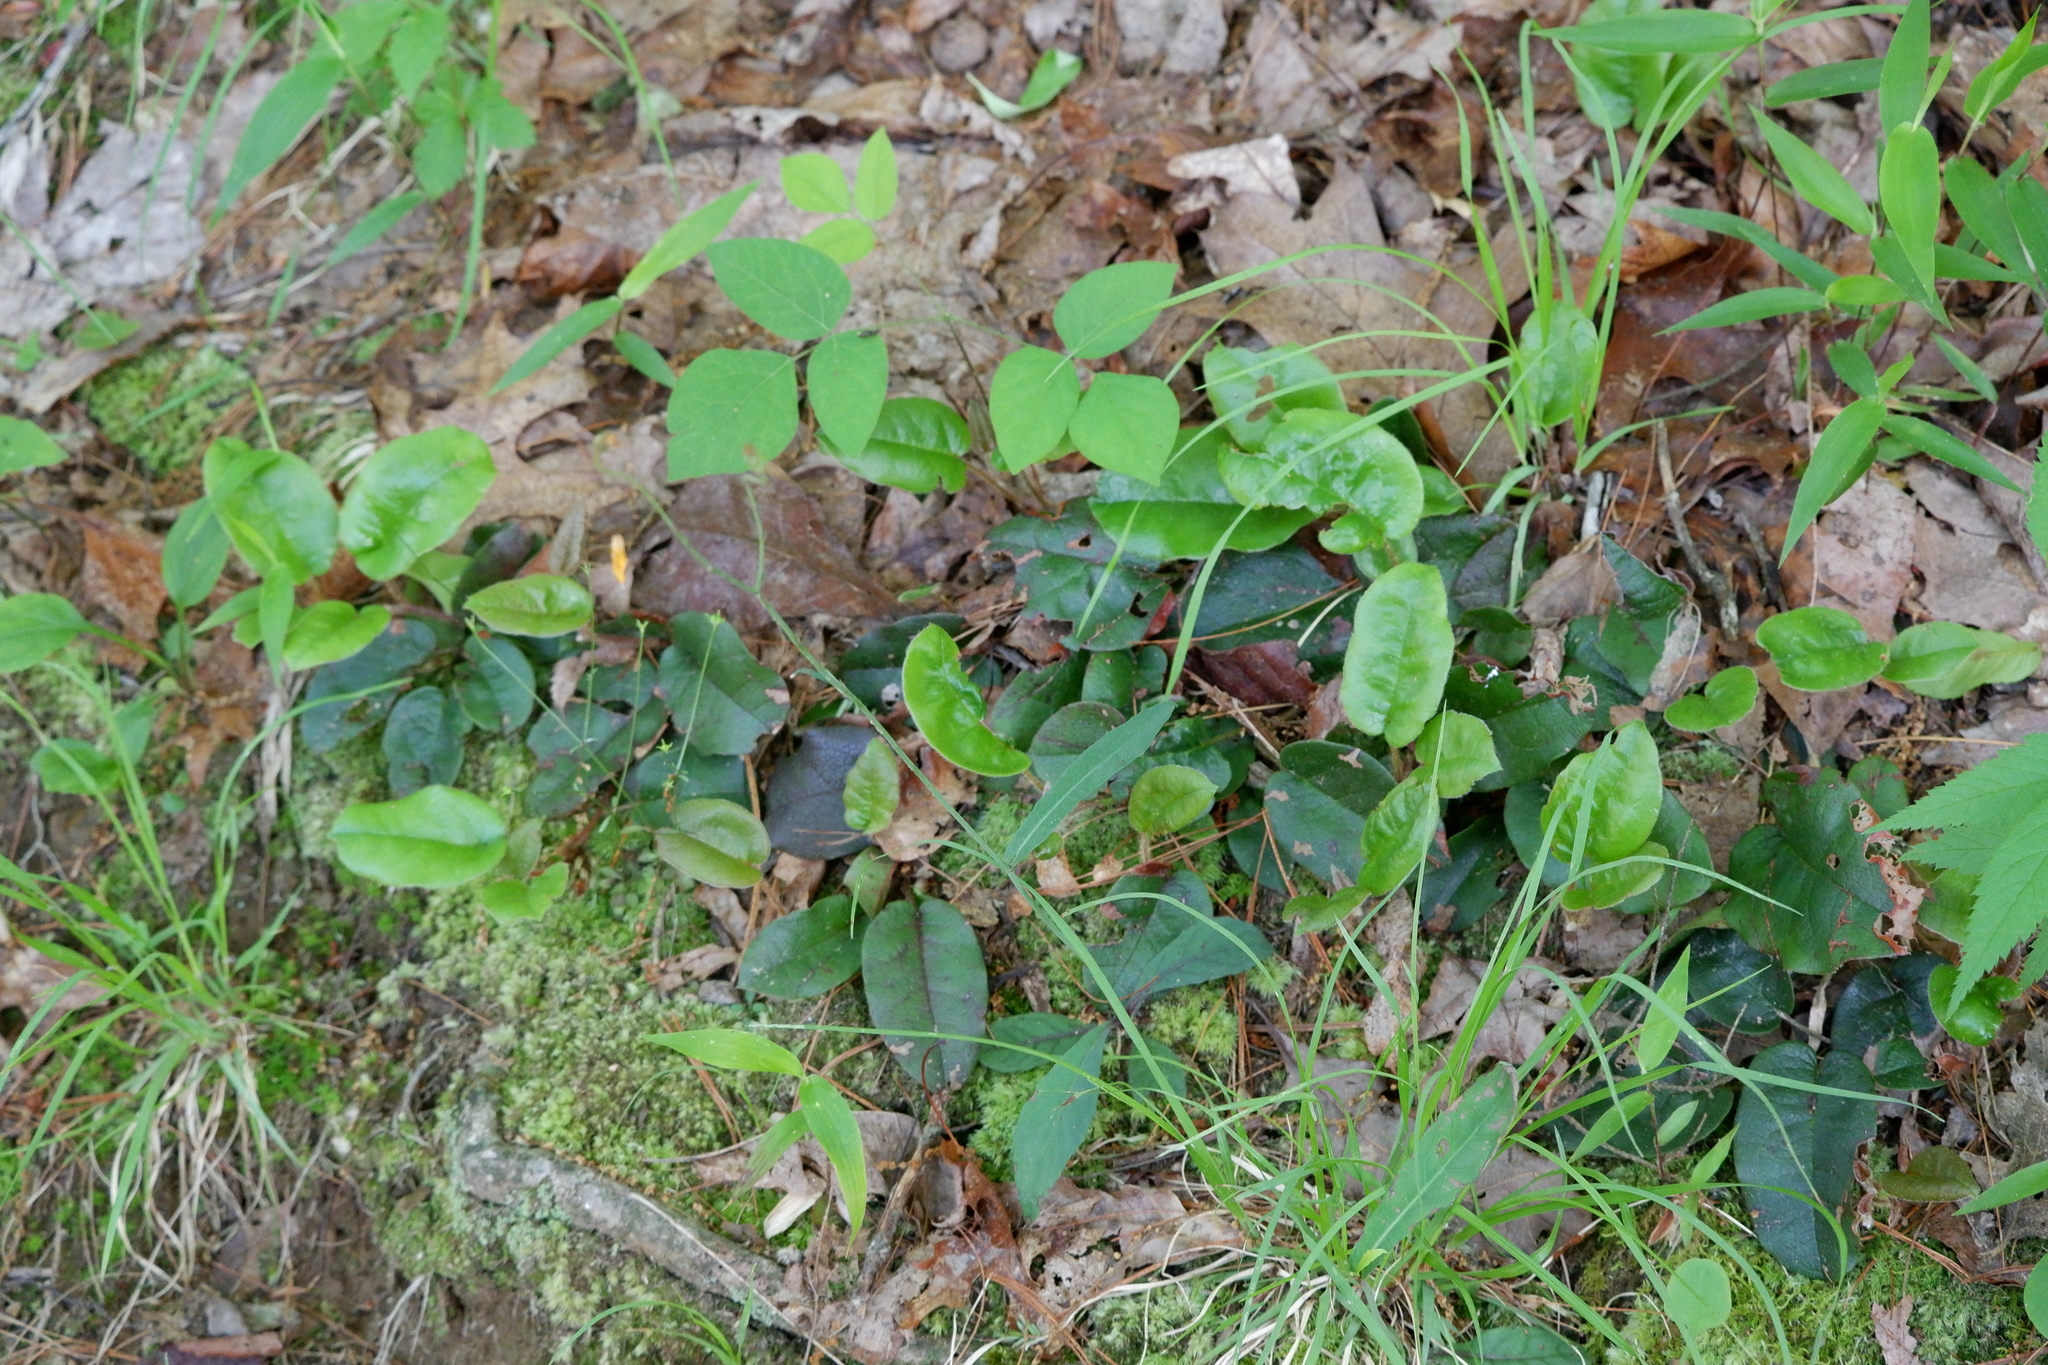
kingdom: Plantae
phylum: Tracheophyta
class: Magnoliopsida
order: Ericales
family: Ericaceae
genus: Epigaea
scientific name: Epigaea repens
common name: Gravelroot
